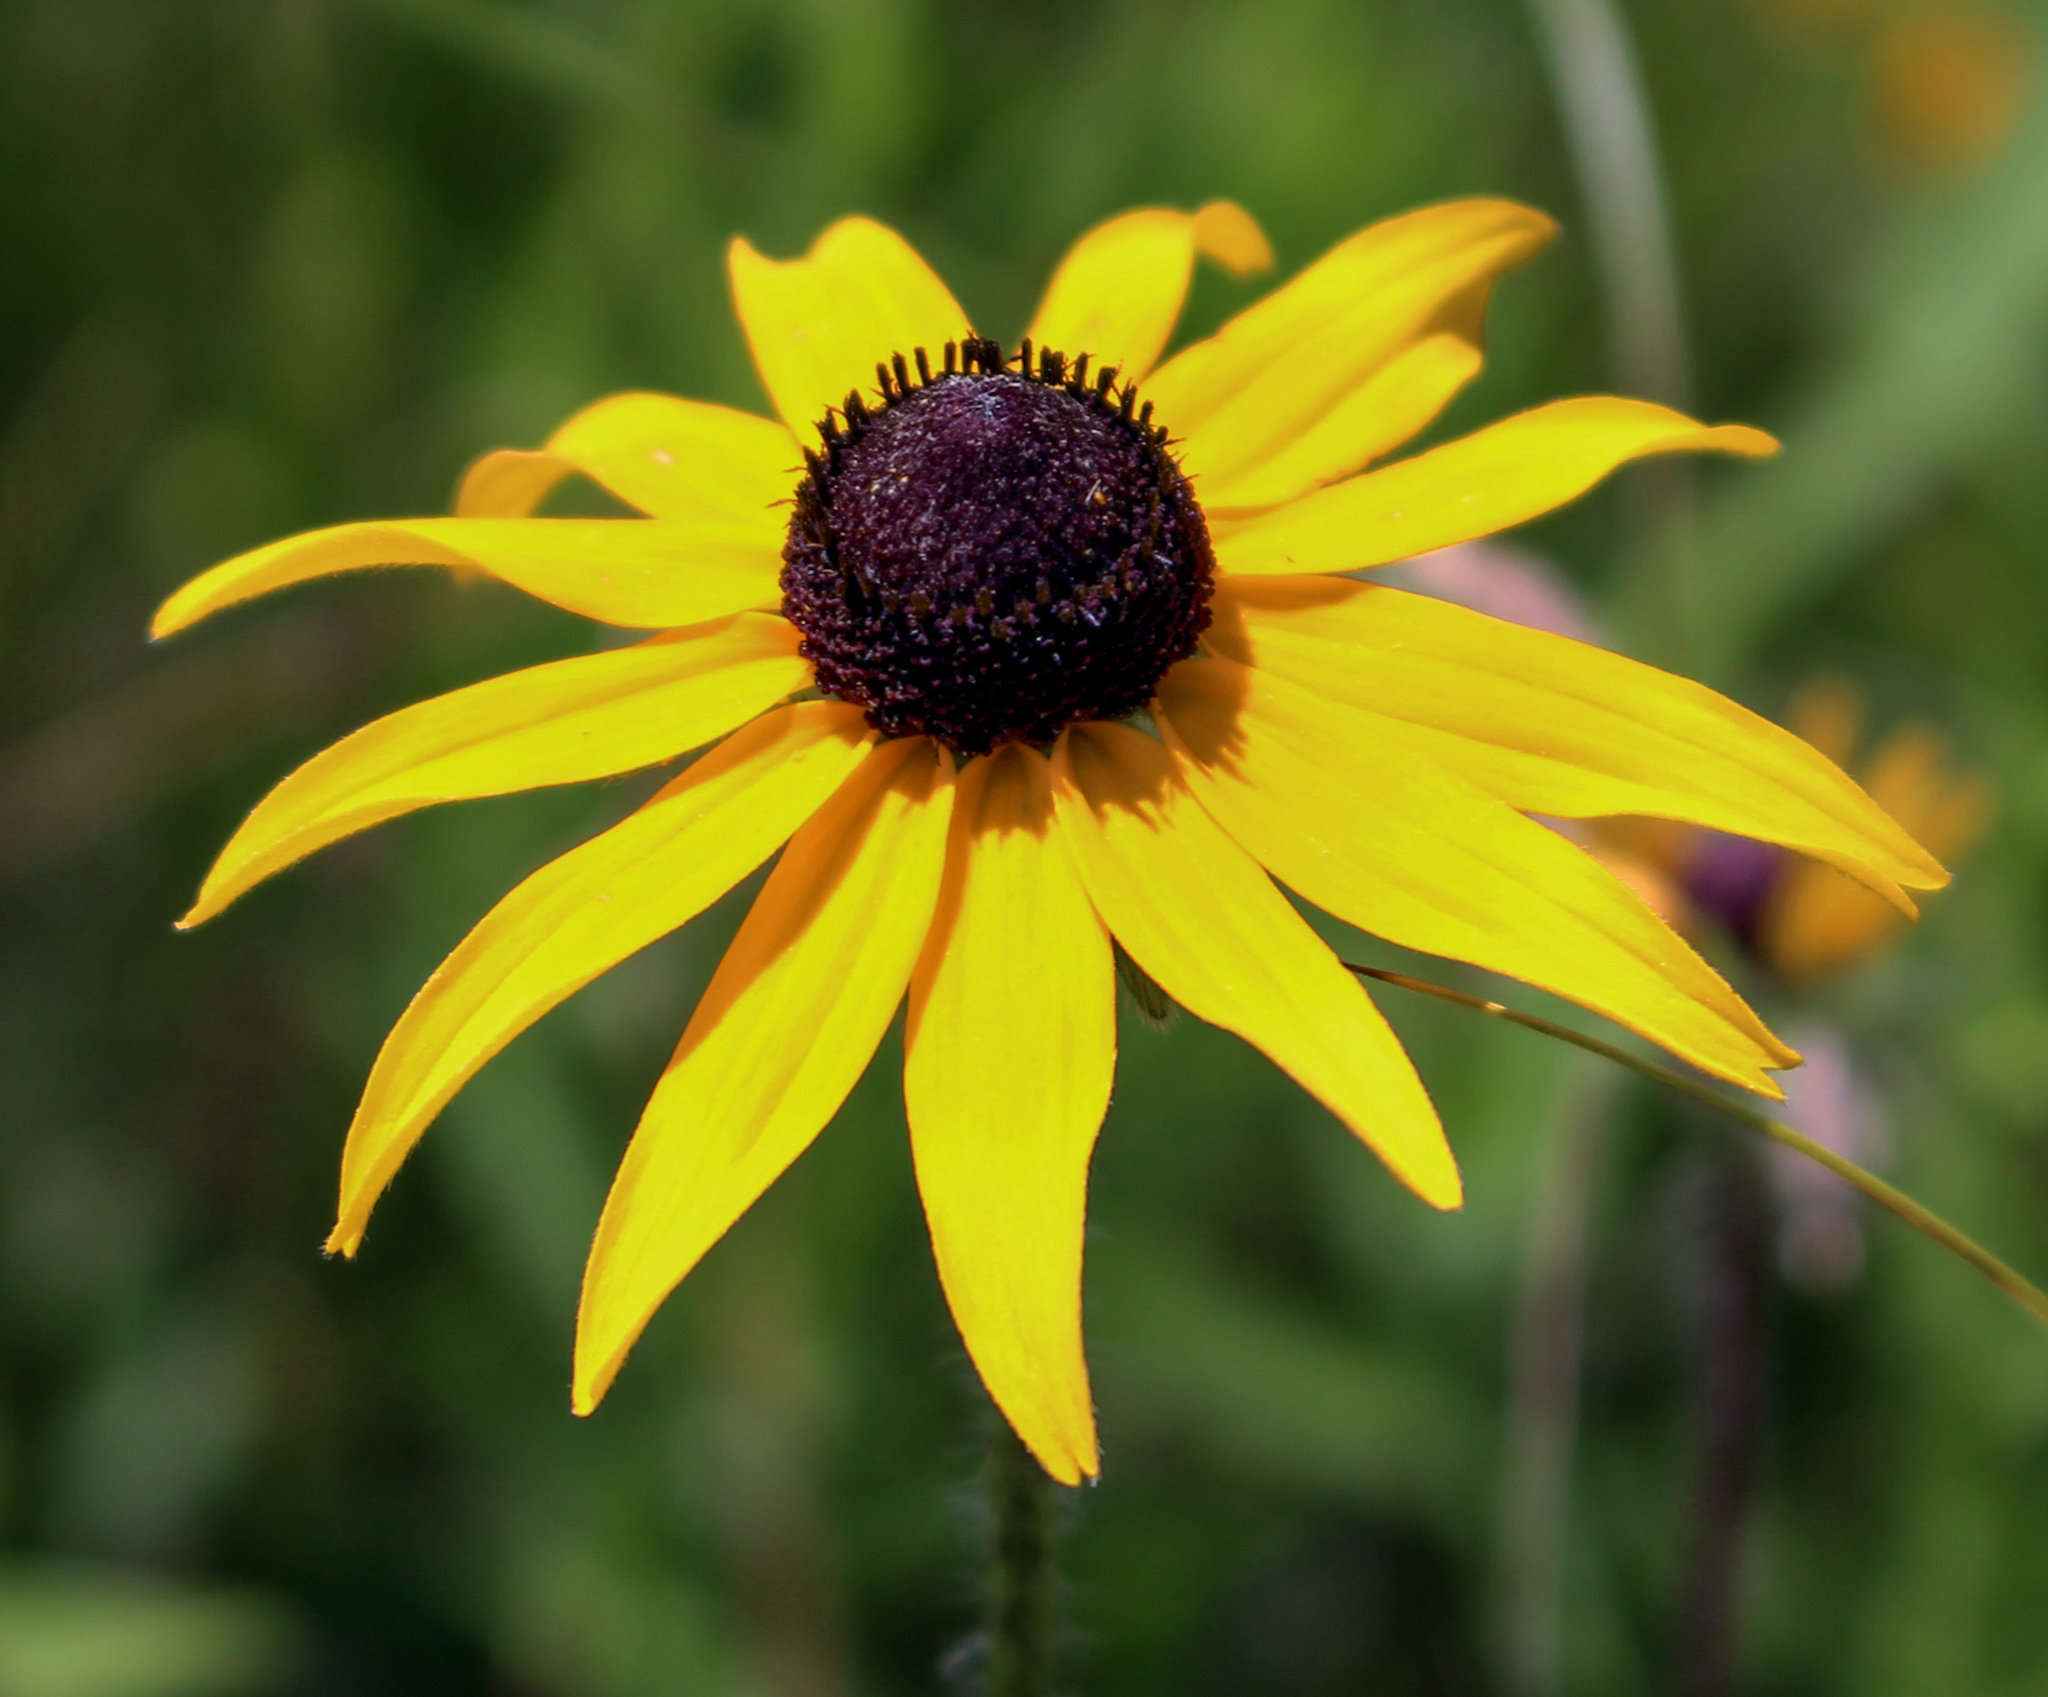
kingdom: Plantae
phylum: Tracheophyta
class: Magnoliopsida
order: Asterales
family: Asteraceae
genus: Rudbeckia
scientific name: Rudbeckia hirta
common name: Black-eyed-susan
